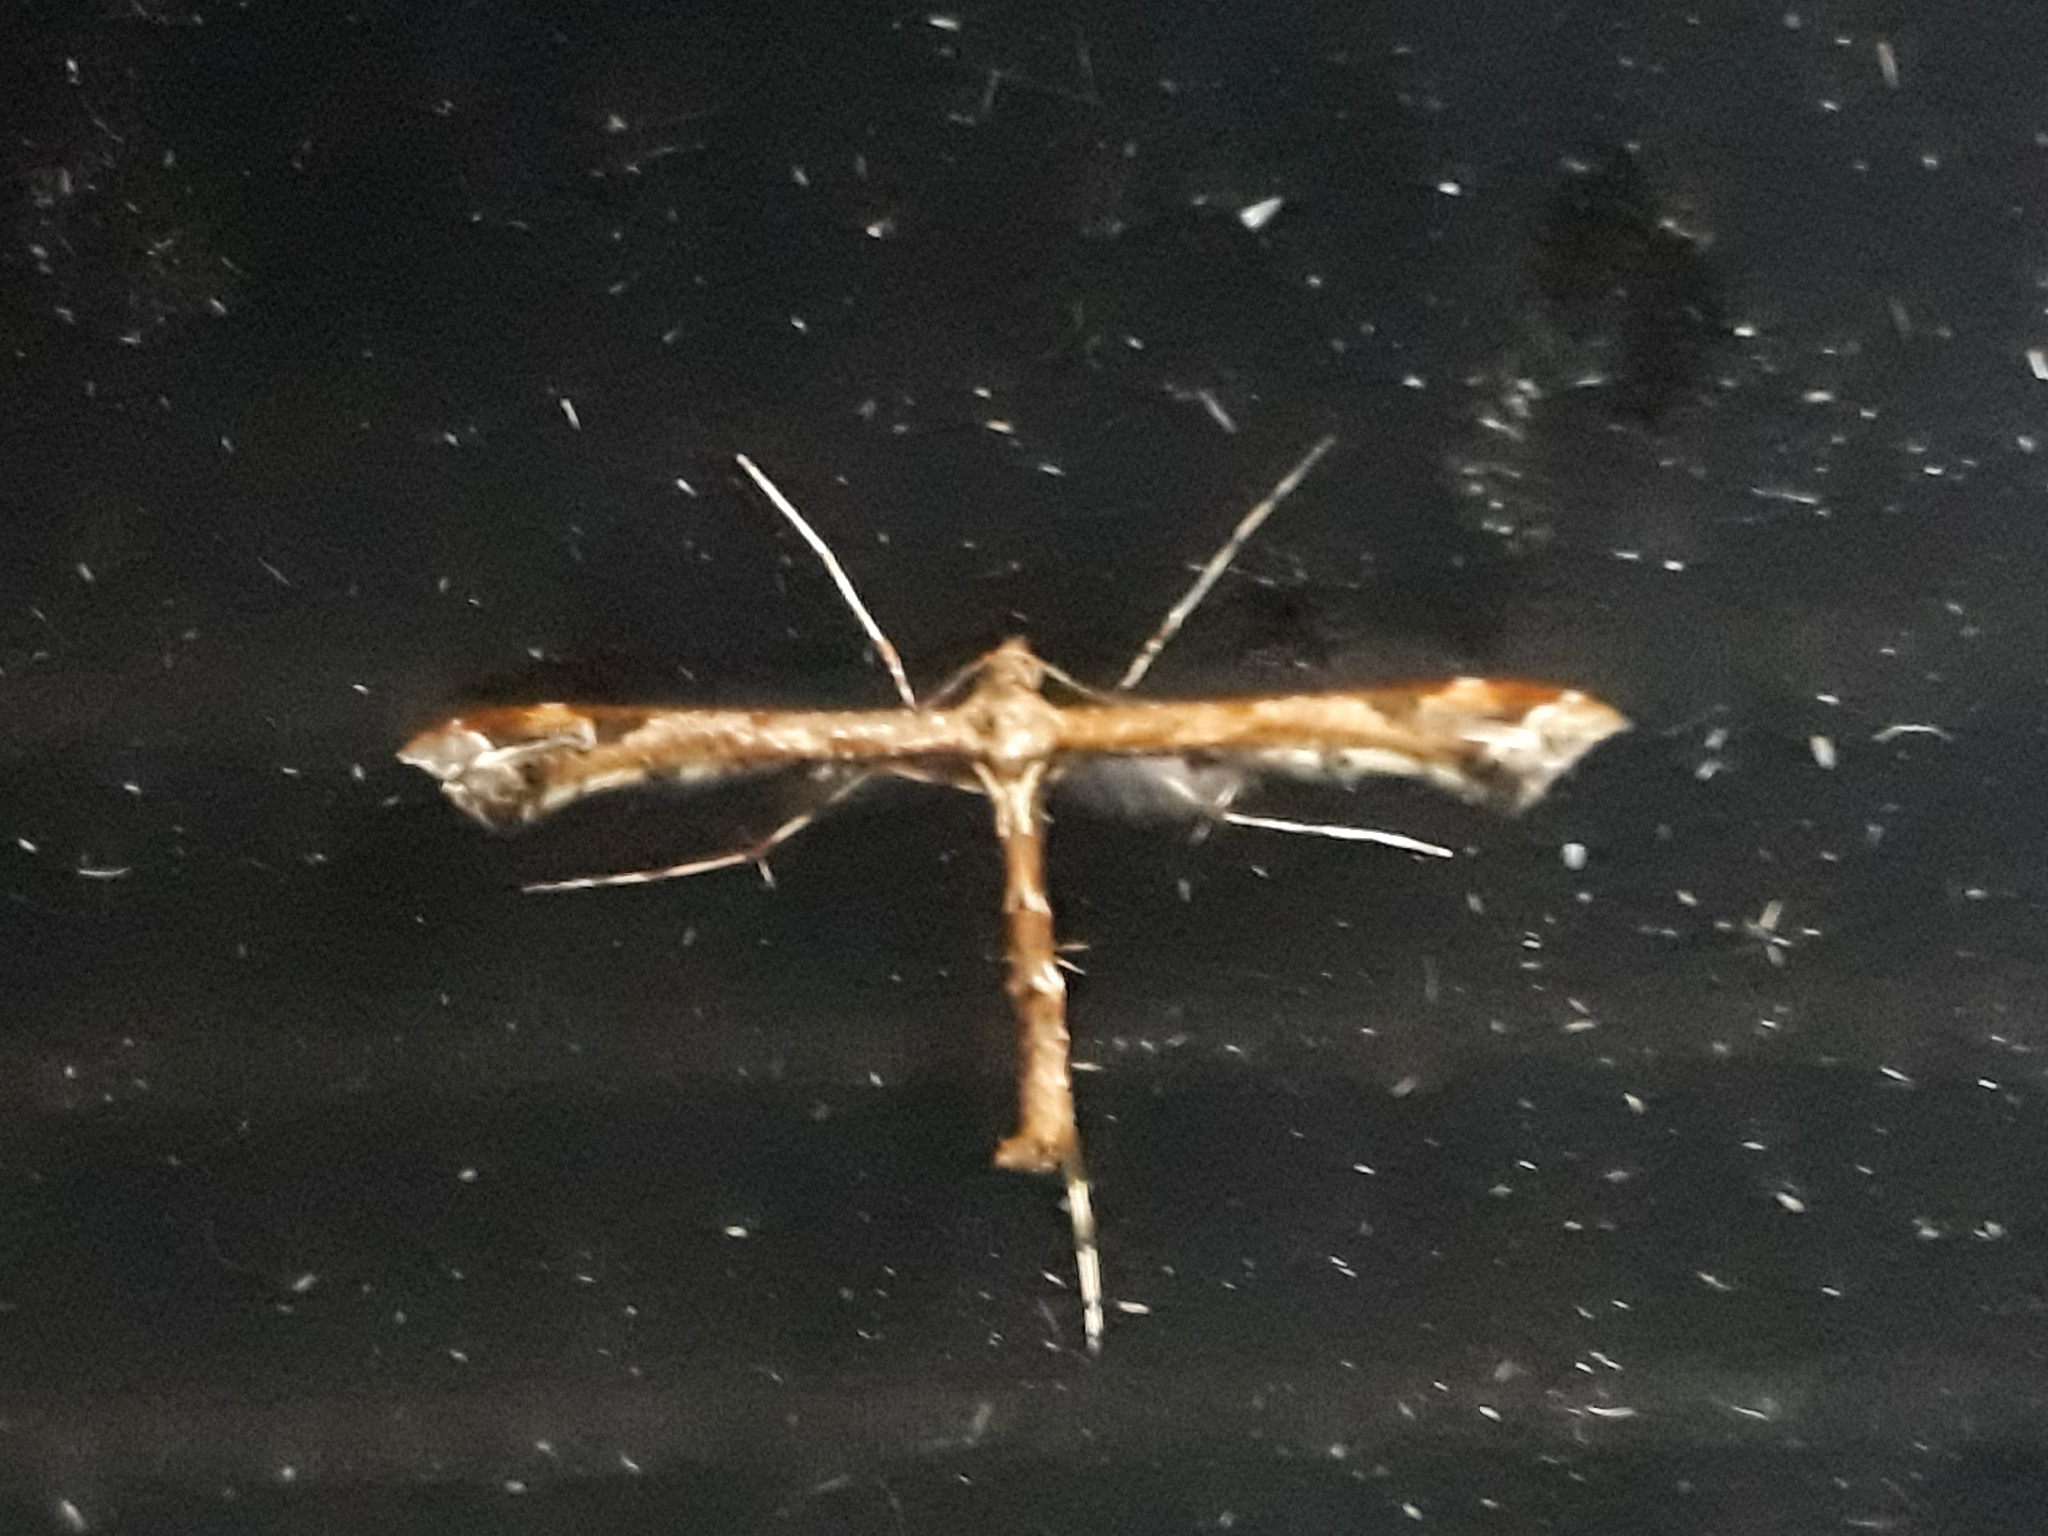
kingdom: Animalia
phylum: Arthropoda
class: Insecta
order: Lepidoptera
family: Pterophoridae
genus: Amblyptilia
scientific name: Amblyptilia acanthadactyla
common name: Beautiful plume
